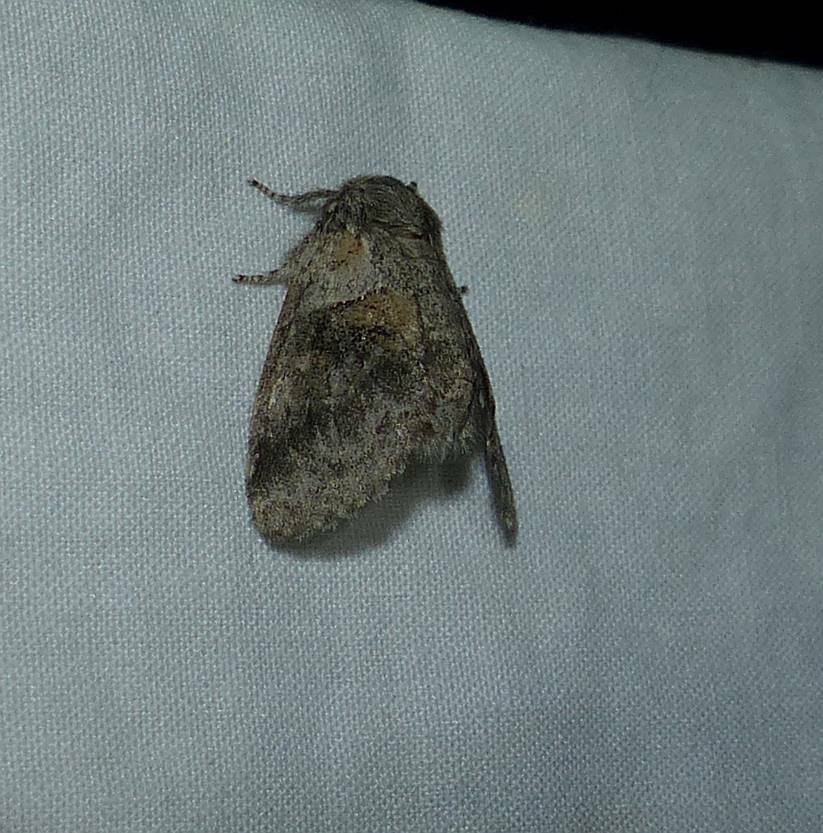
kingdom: Animalia
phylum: Arthropoda
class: Insecta
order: Lepidoptera
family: Notodontidae
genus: Gluphisia
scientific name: Gluphisia septentrionis
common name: Common gluphisia
